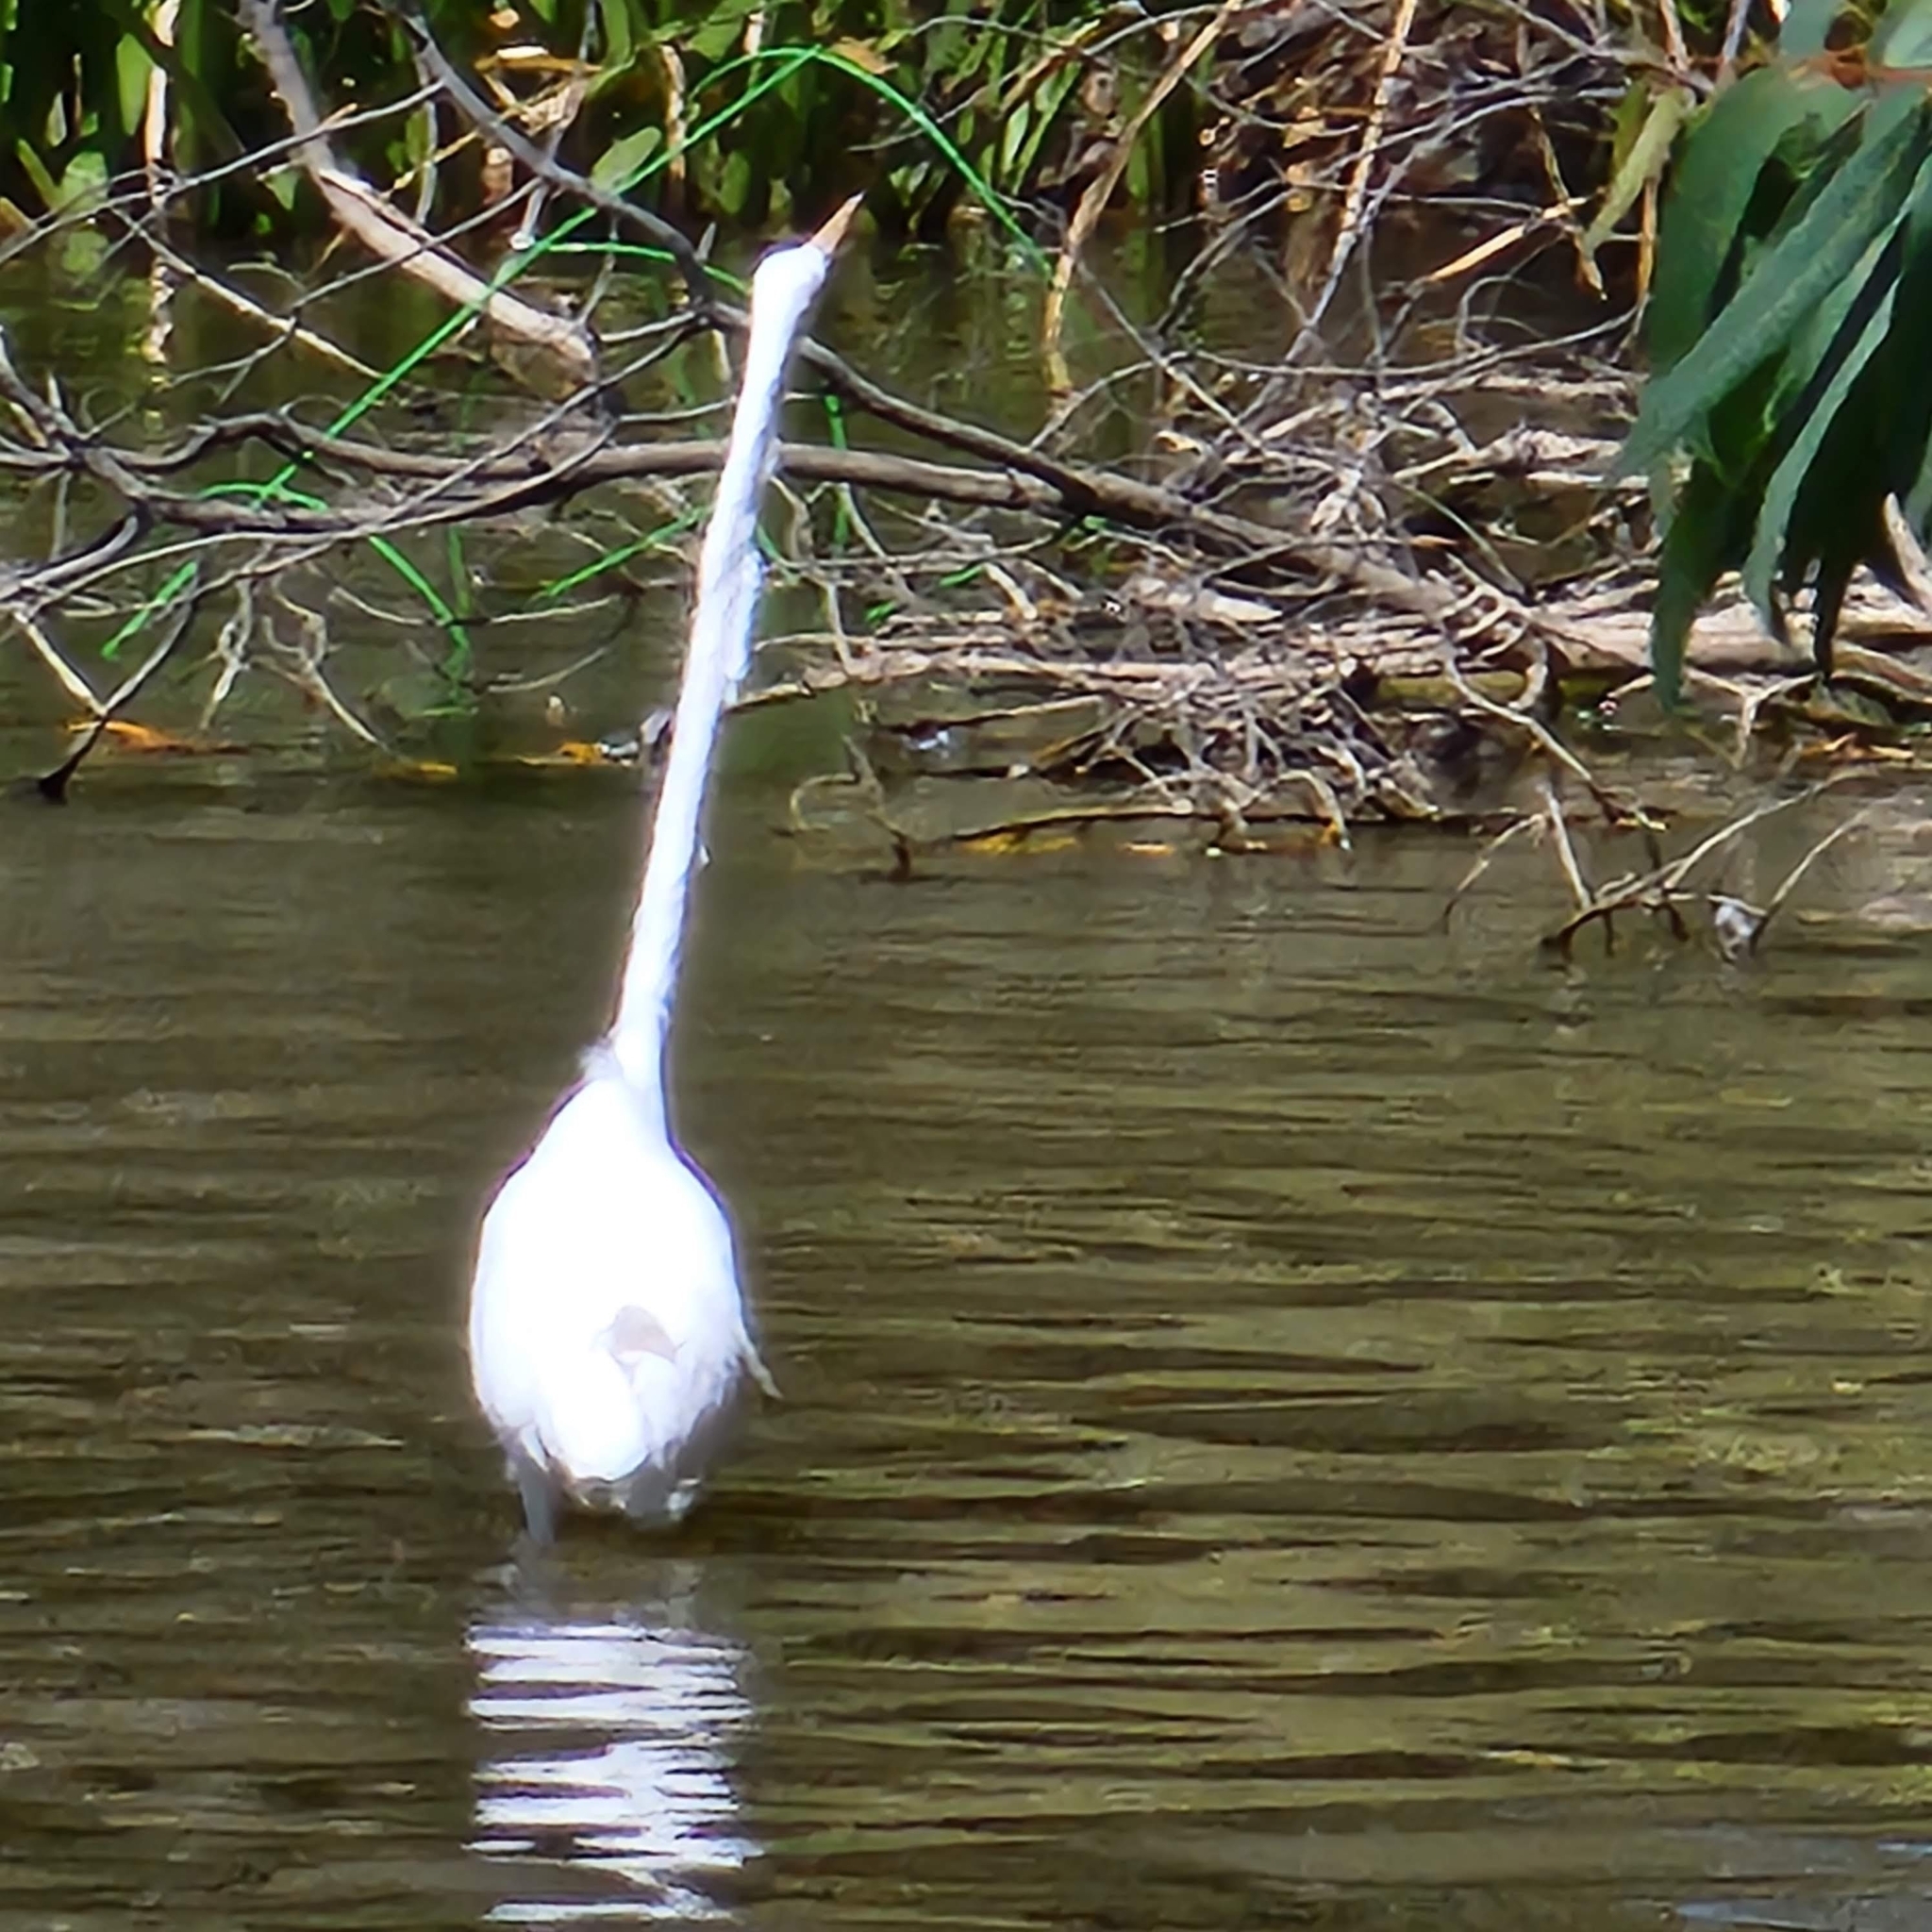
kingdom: Animalia
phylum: Chordata
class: Aves
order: Pelecaniformes
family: Ardeidae
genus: Ardea
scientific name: Ardea alba
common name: Great egret
